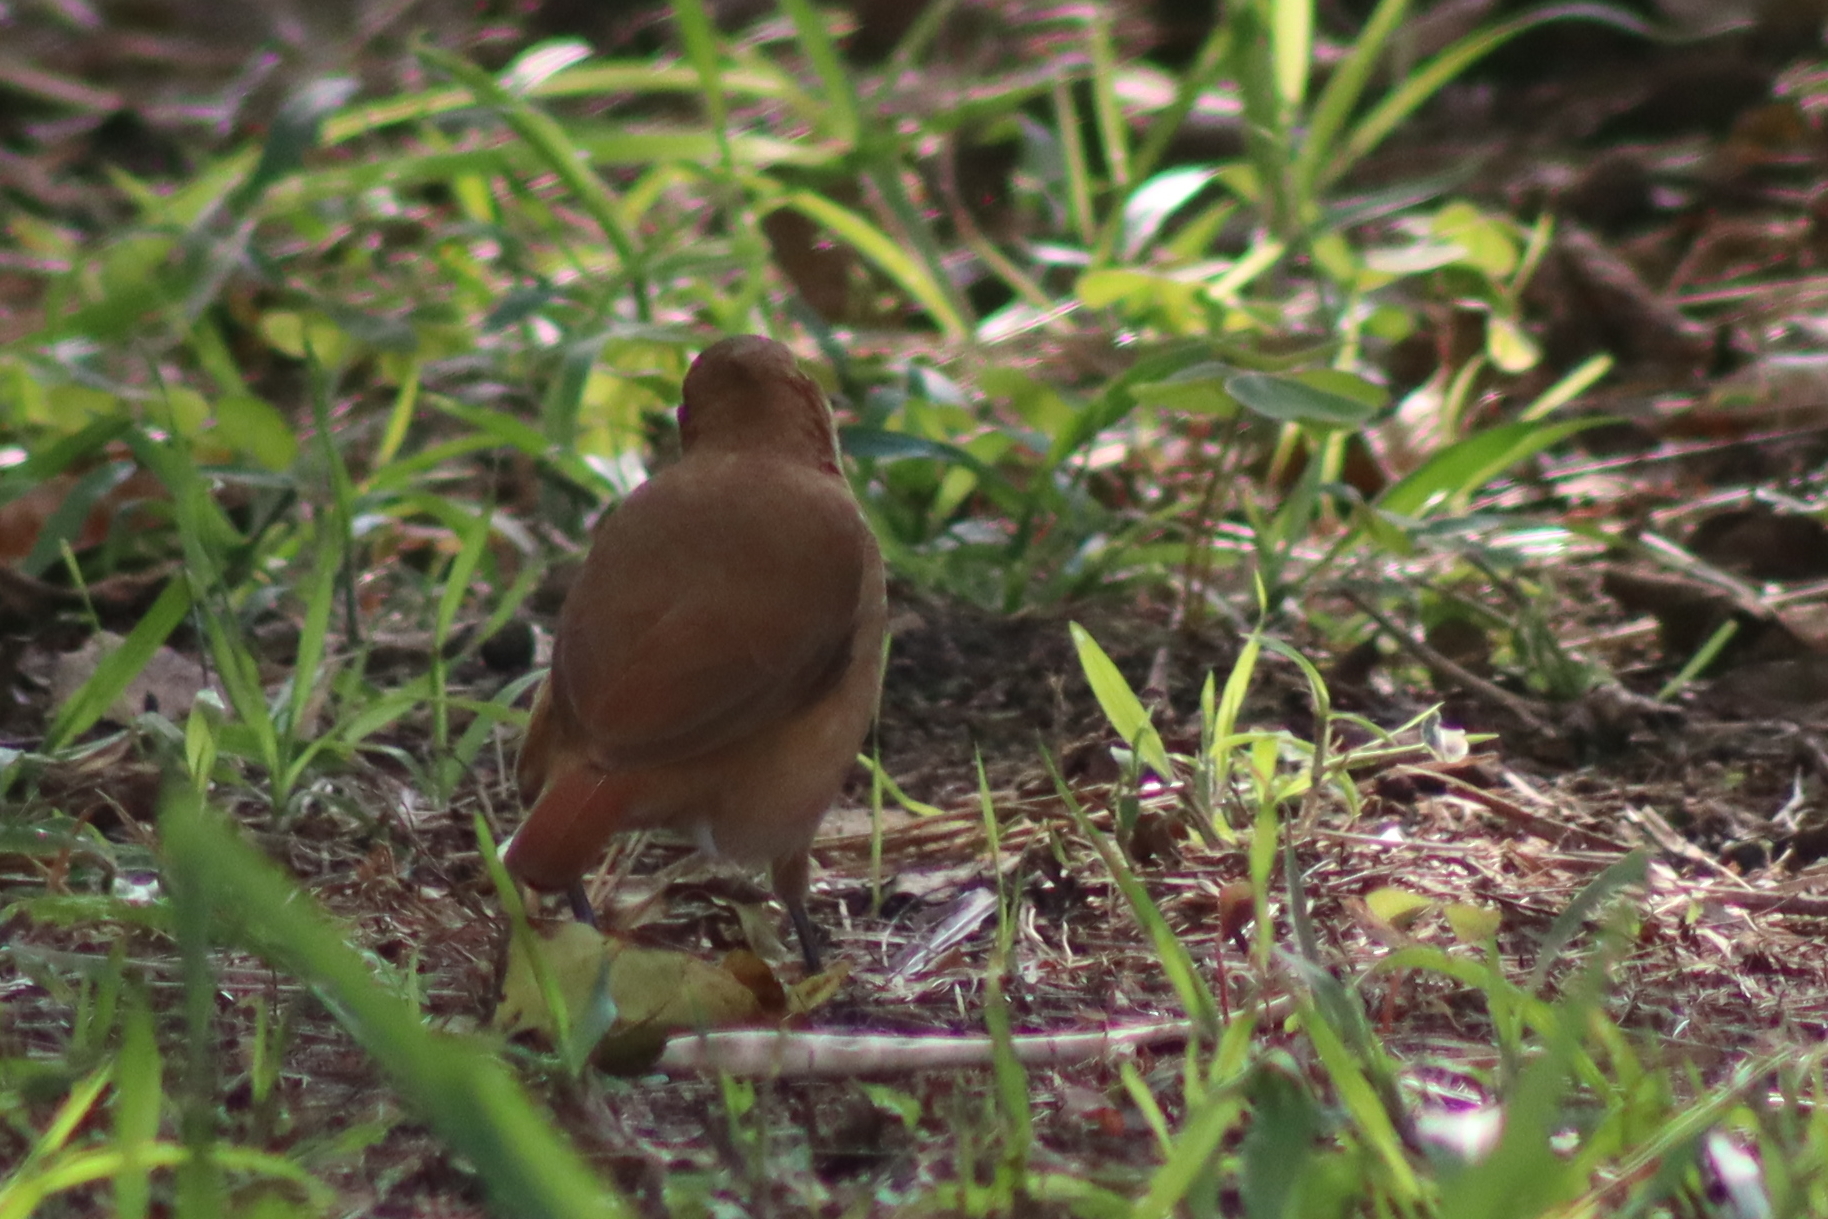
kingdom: Animalia
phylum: Chordata
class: Aves
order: Passeriformes
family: Furnariidae
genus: Furnarius
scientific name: Furnarius rufus
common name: Rufous hornero
